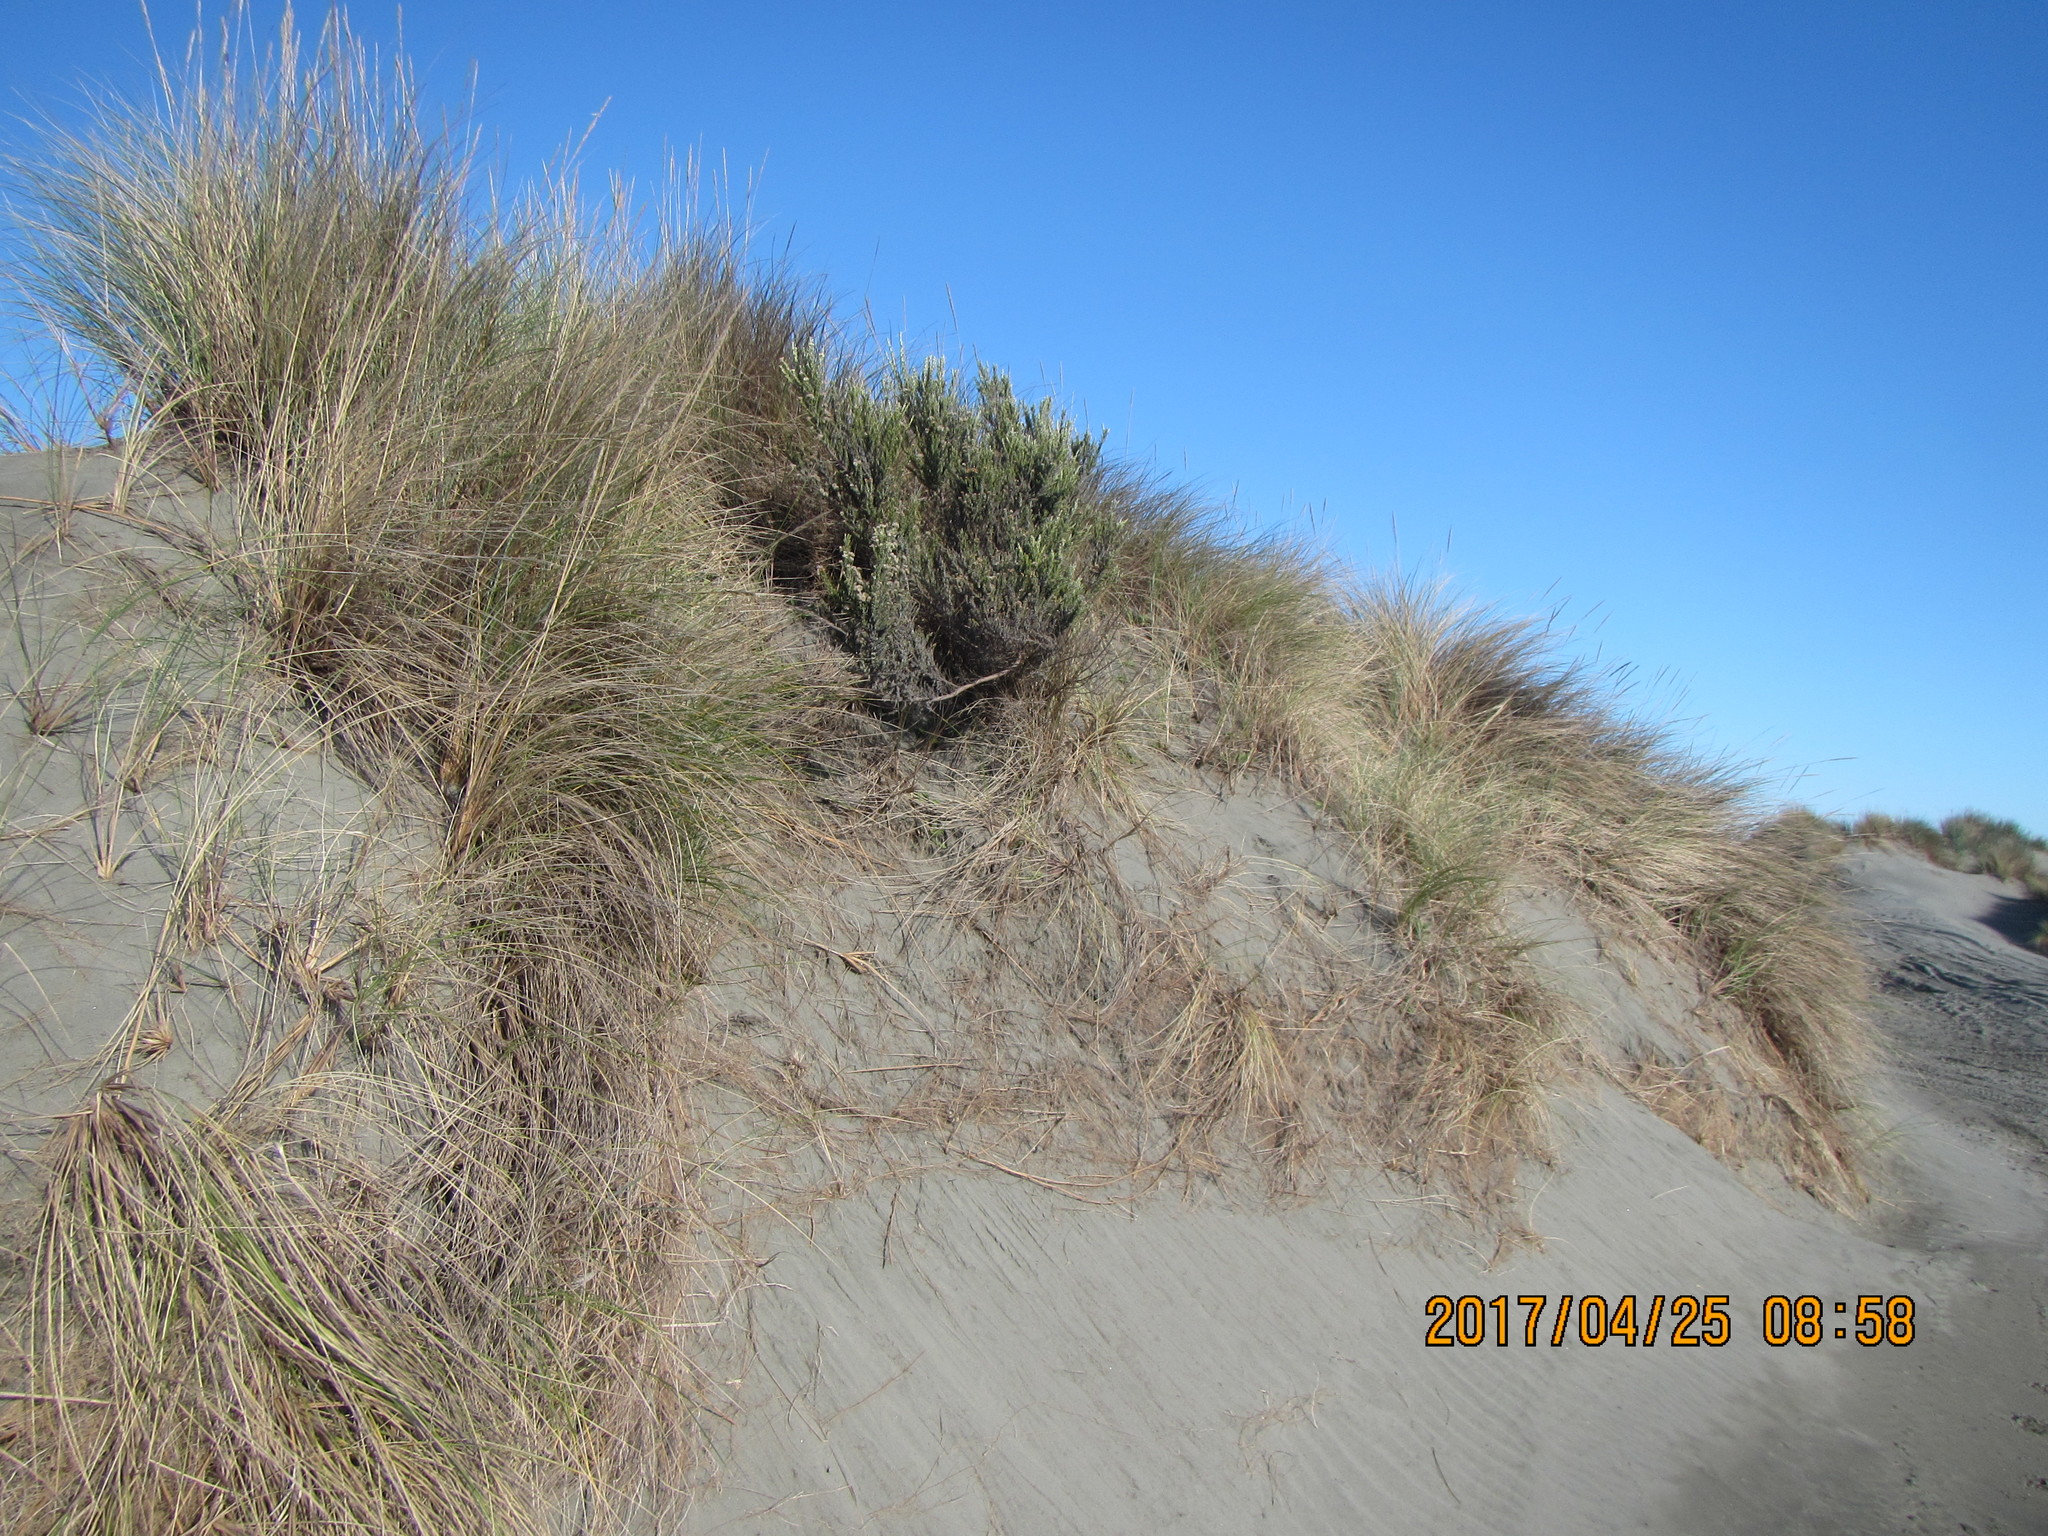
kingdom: Plantae
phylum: Tracheophyta
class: Magnoliopsida
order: Asterales
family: Asteraceae
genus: Ozothamnus
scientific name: Ozothamnus leptophyllus
